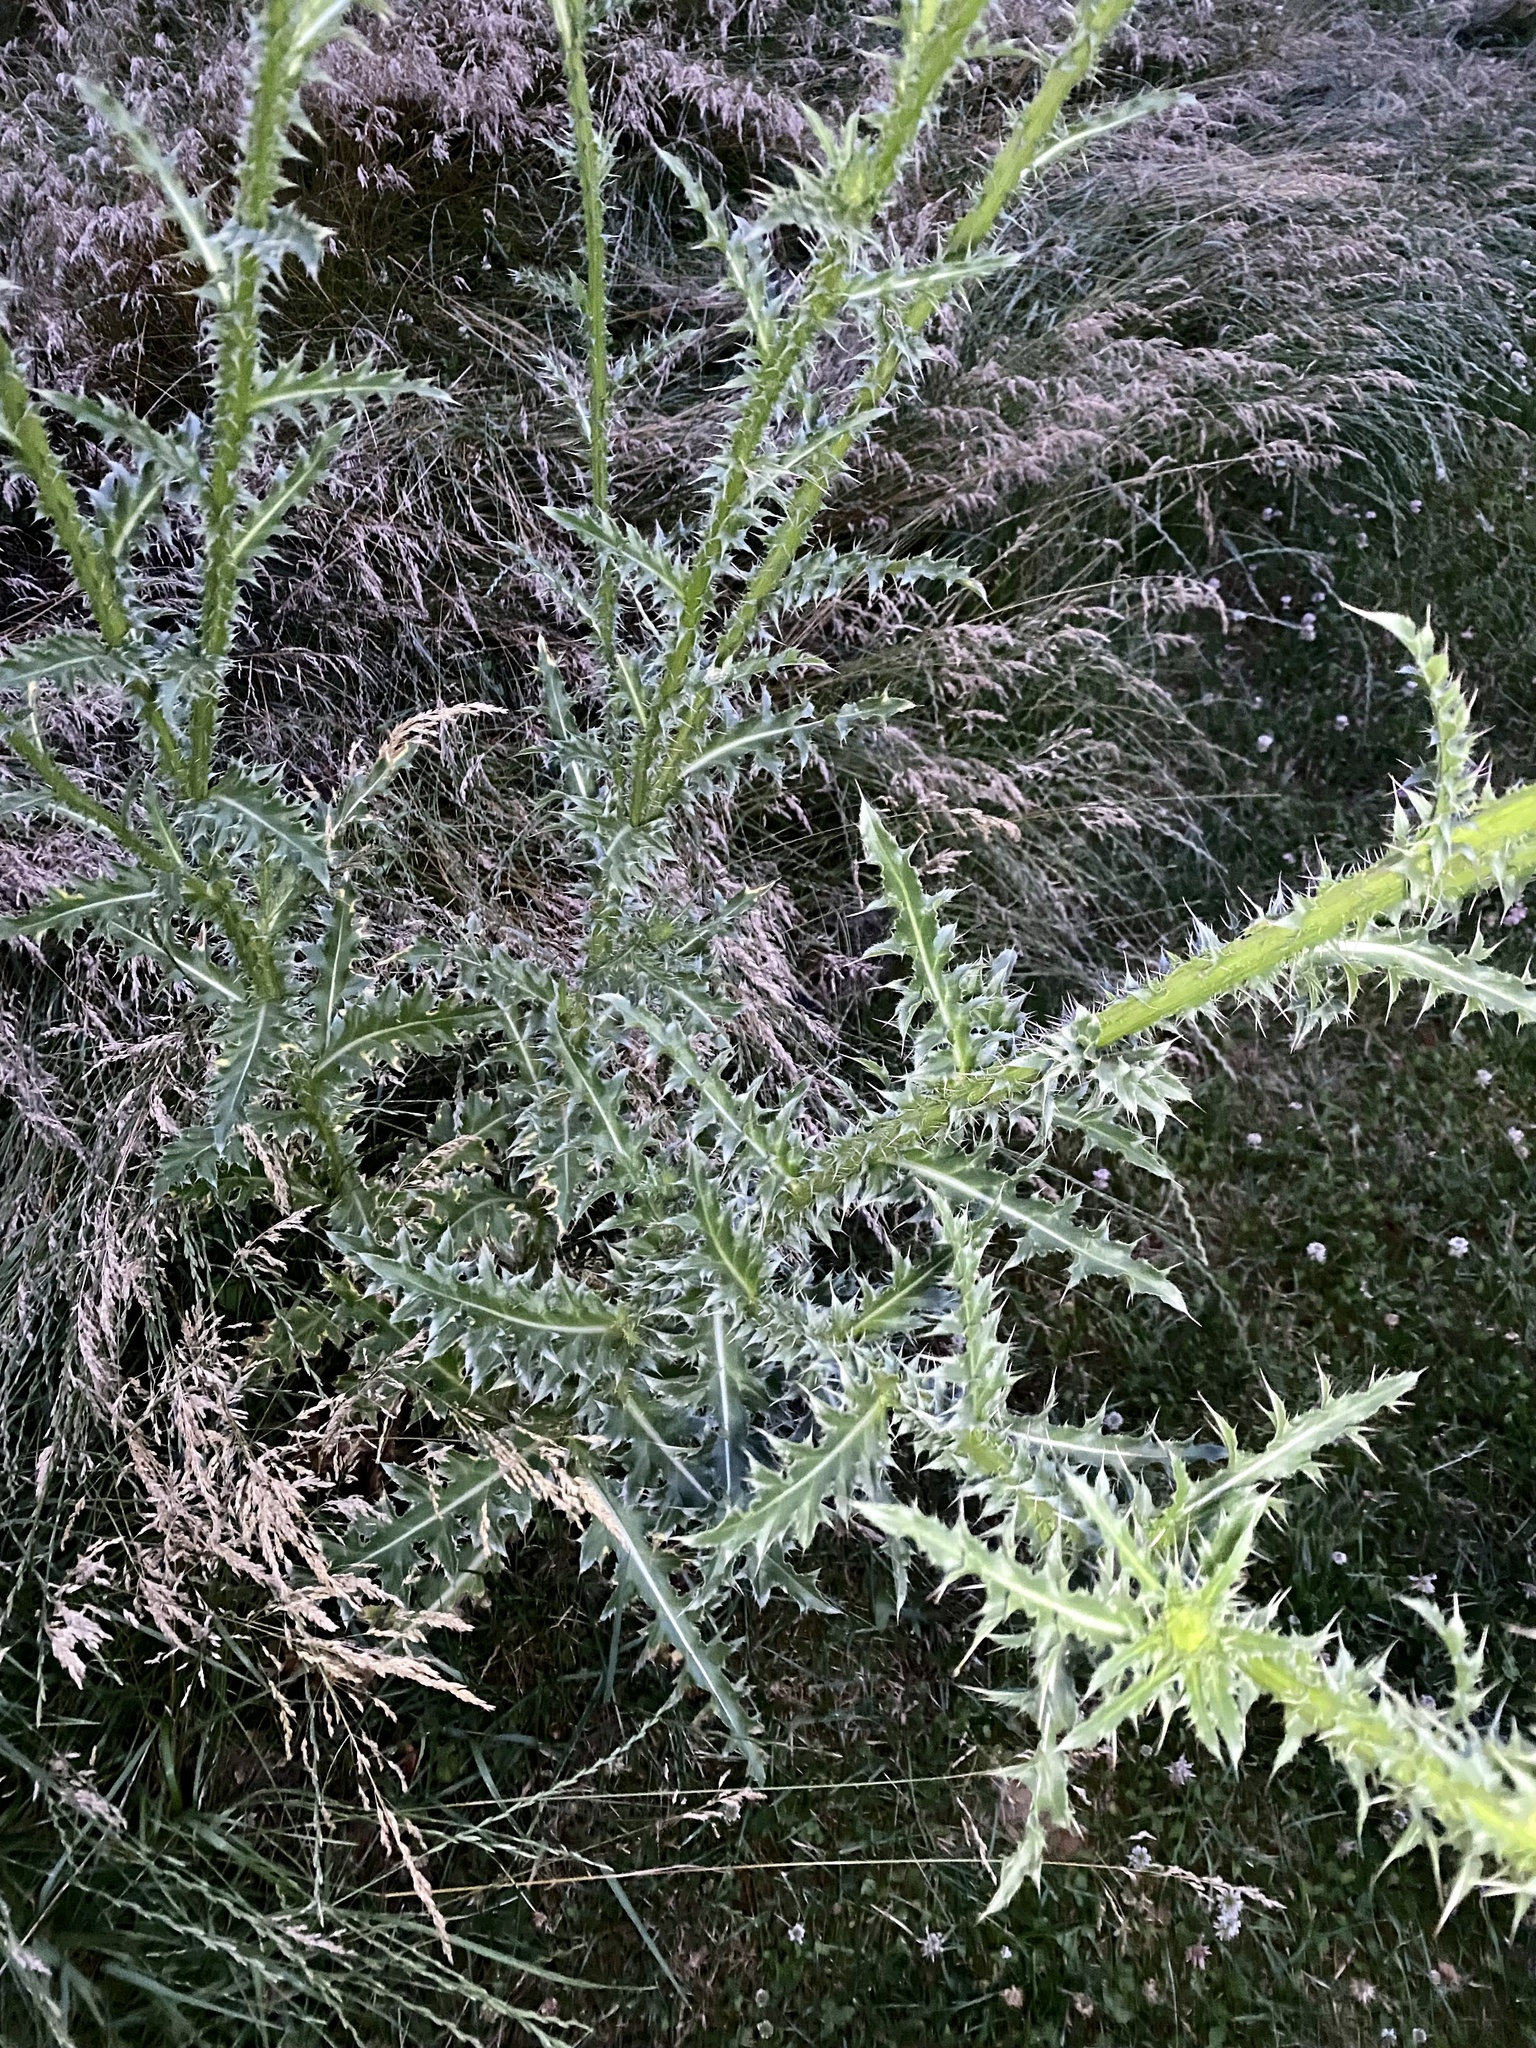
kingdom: Plantae
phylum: Tracheophyta
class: Magnoliopsida
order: Asterales
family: Asteraceae
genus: Carduus
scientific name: Carduus nutans
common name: Musk thistle
